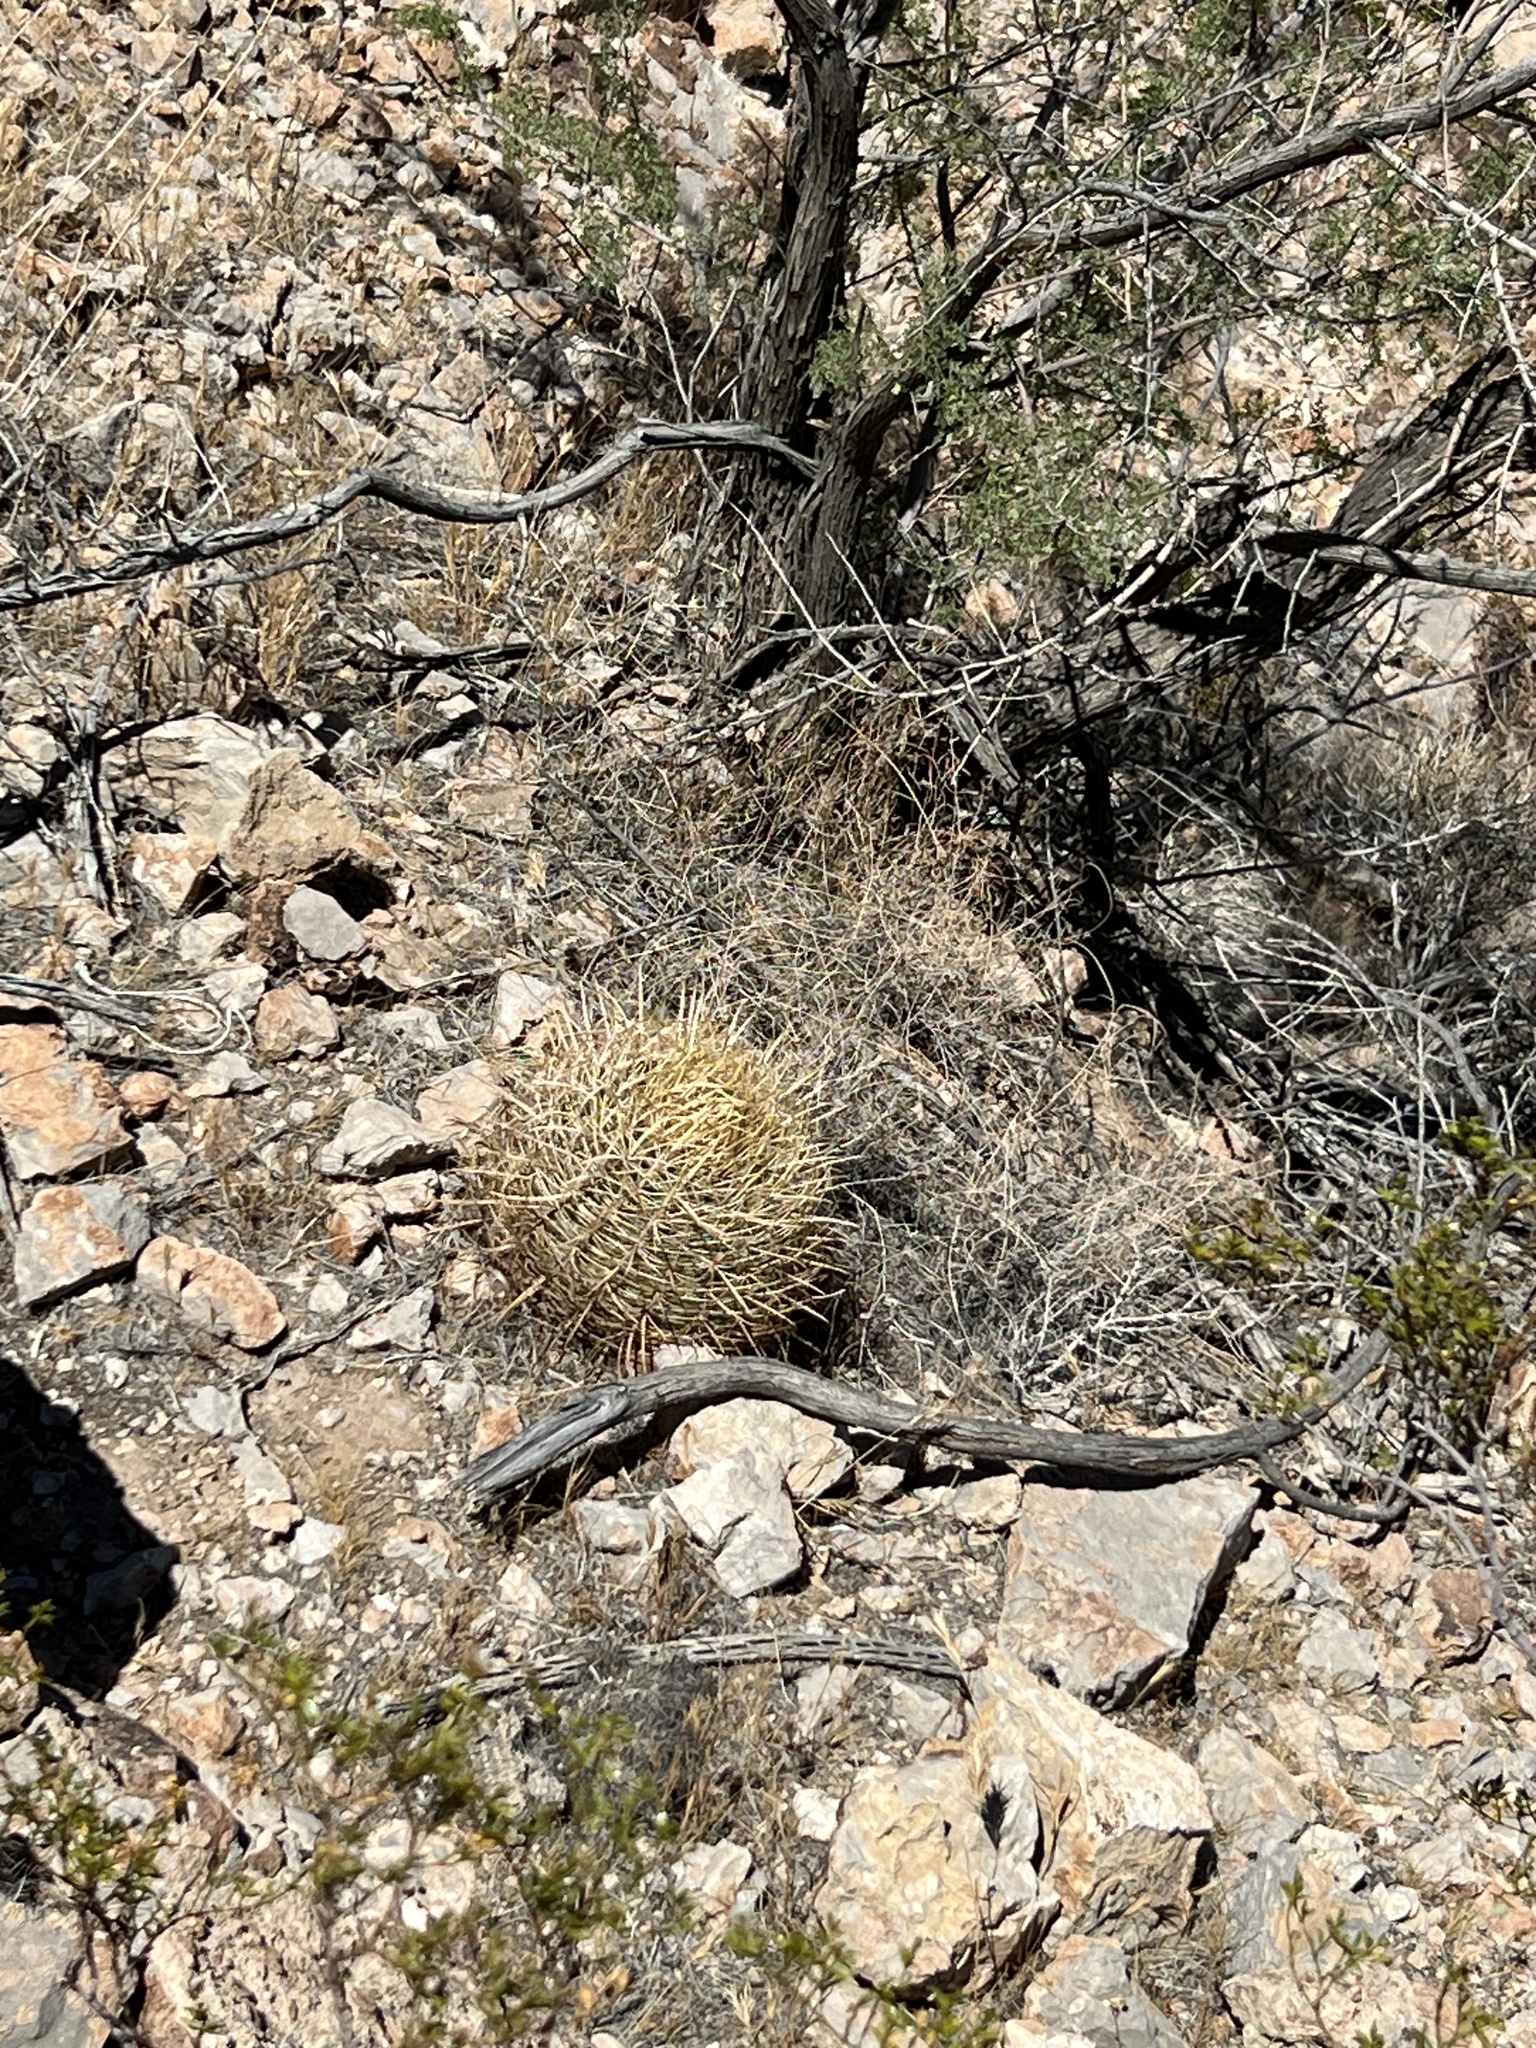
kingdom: Plantae
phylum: Tracheophyta
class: Magnoliopsida
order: Caryophyllales
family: Cactaceae
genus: Ferocactus
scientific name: Ferocactus cylindraceus
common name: California barrel cactus
